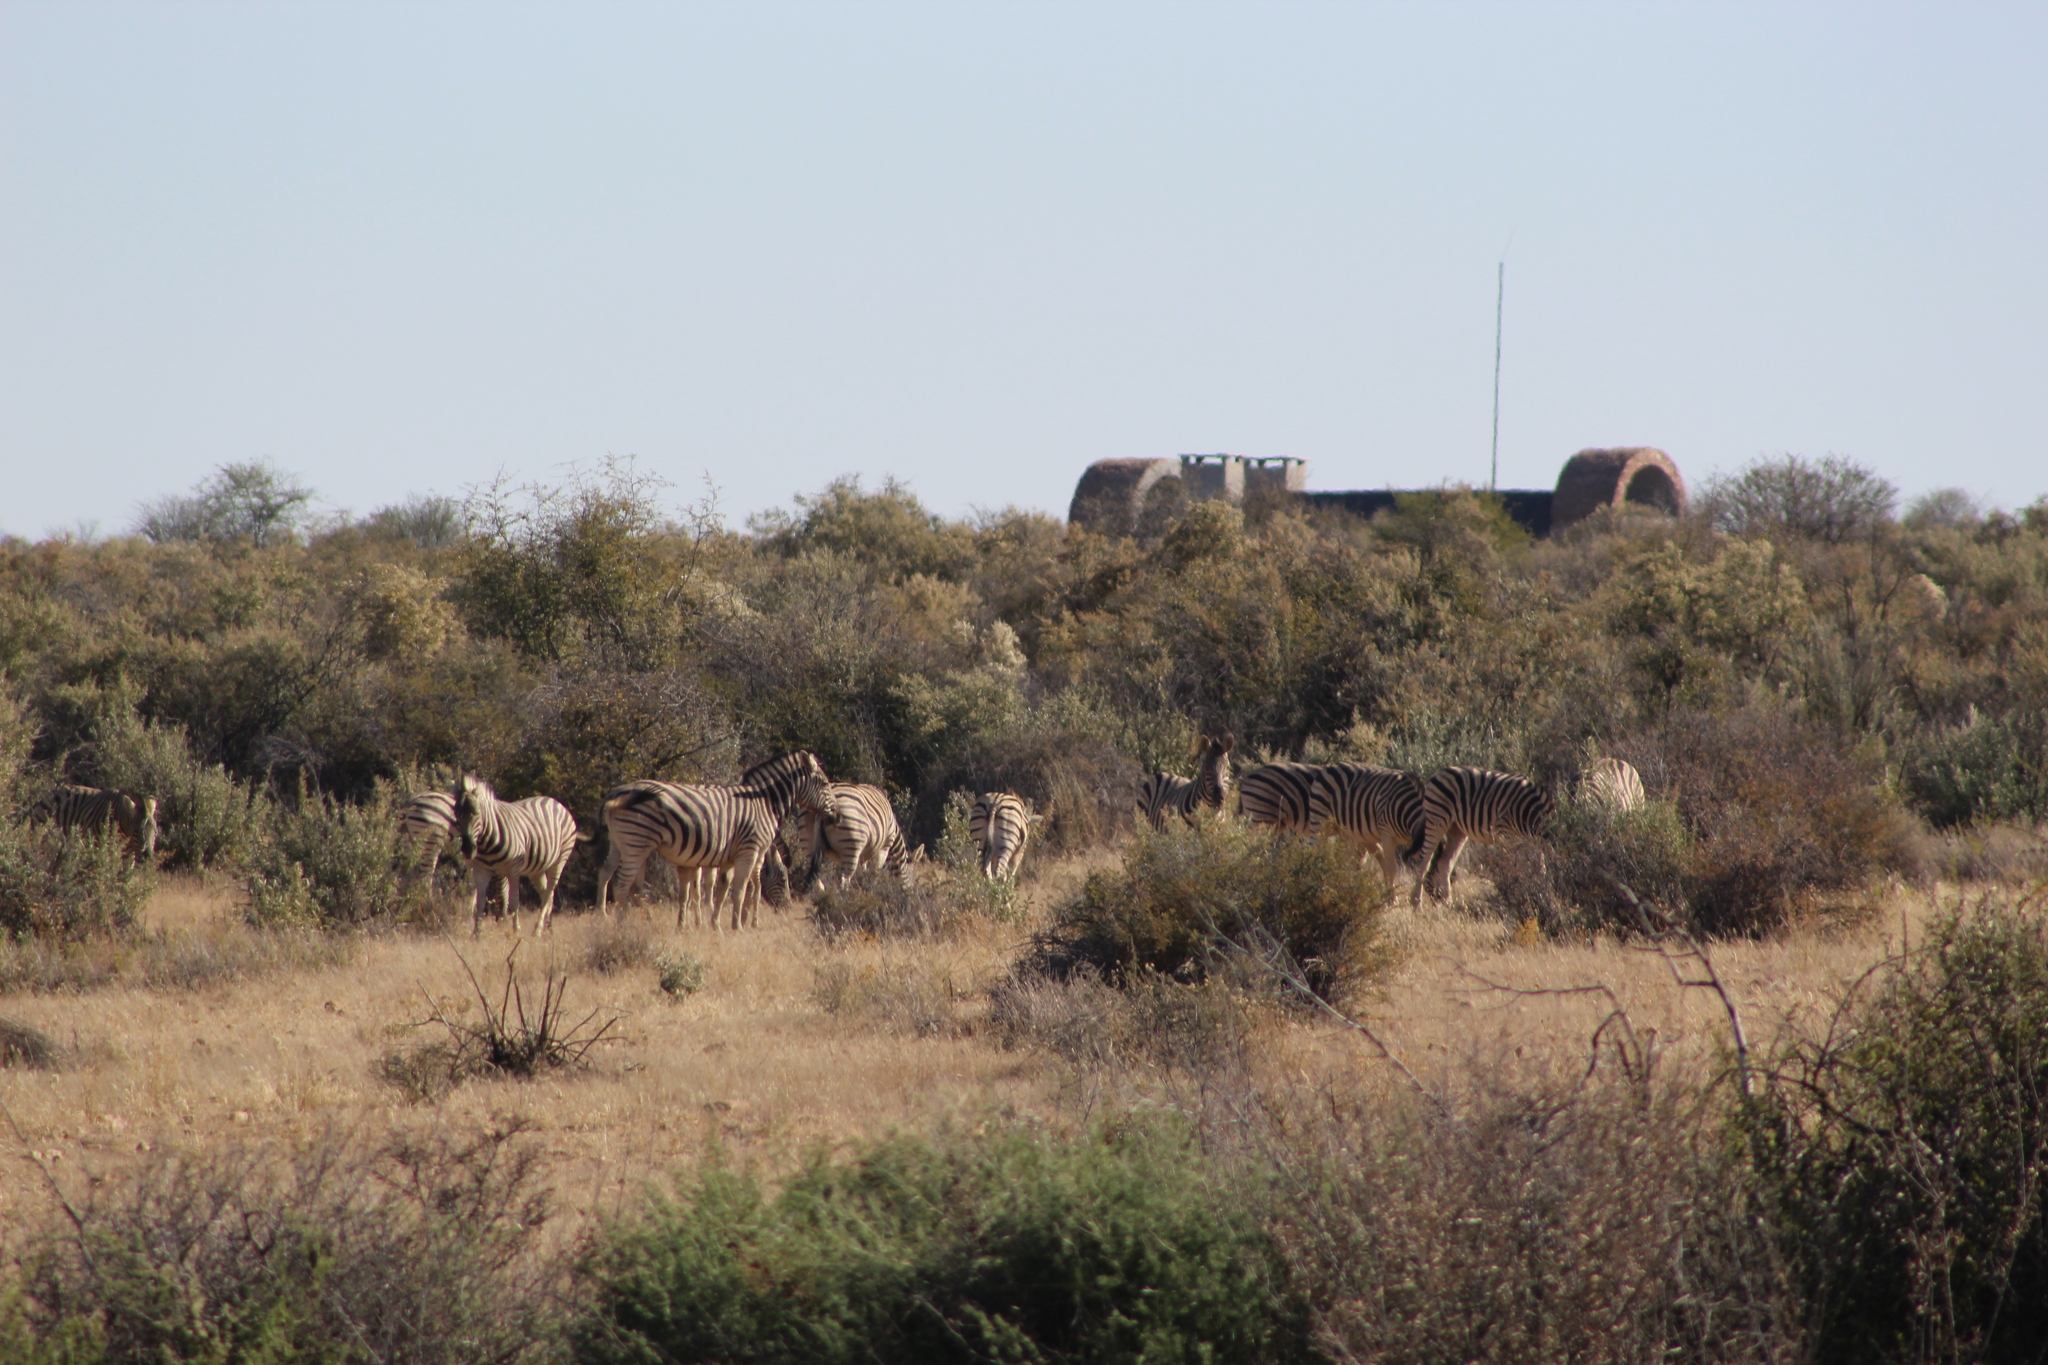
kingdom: Animalia
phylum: Chordata
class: Mammalia
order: Perissodactyla
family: Equidae
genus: Equus
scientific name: Equus quagga
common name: Plains zebra
